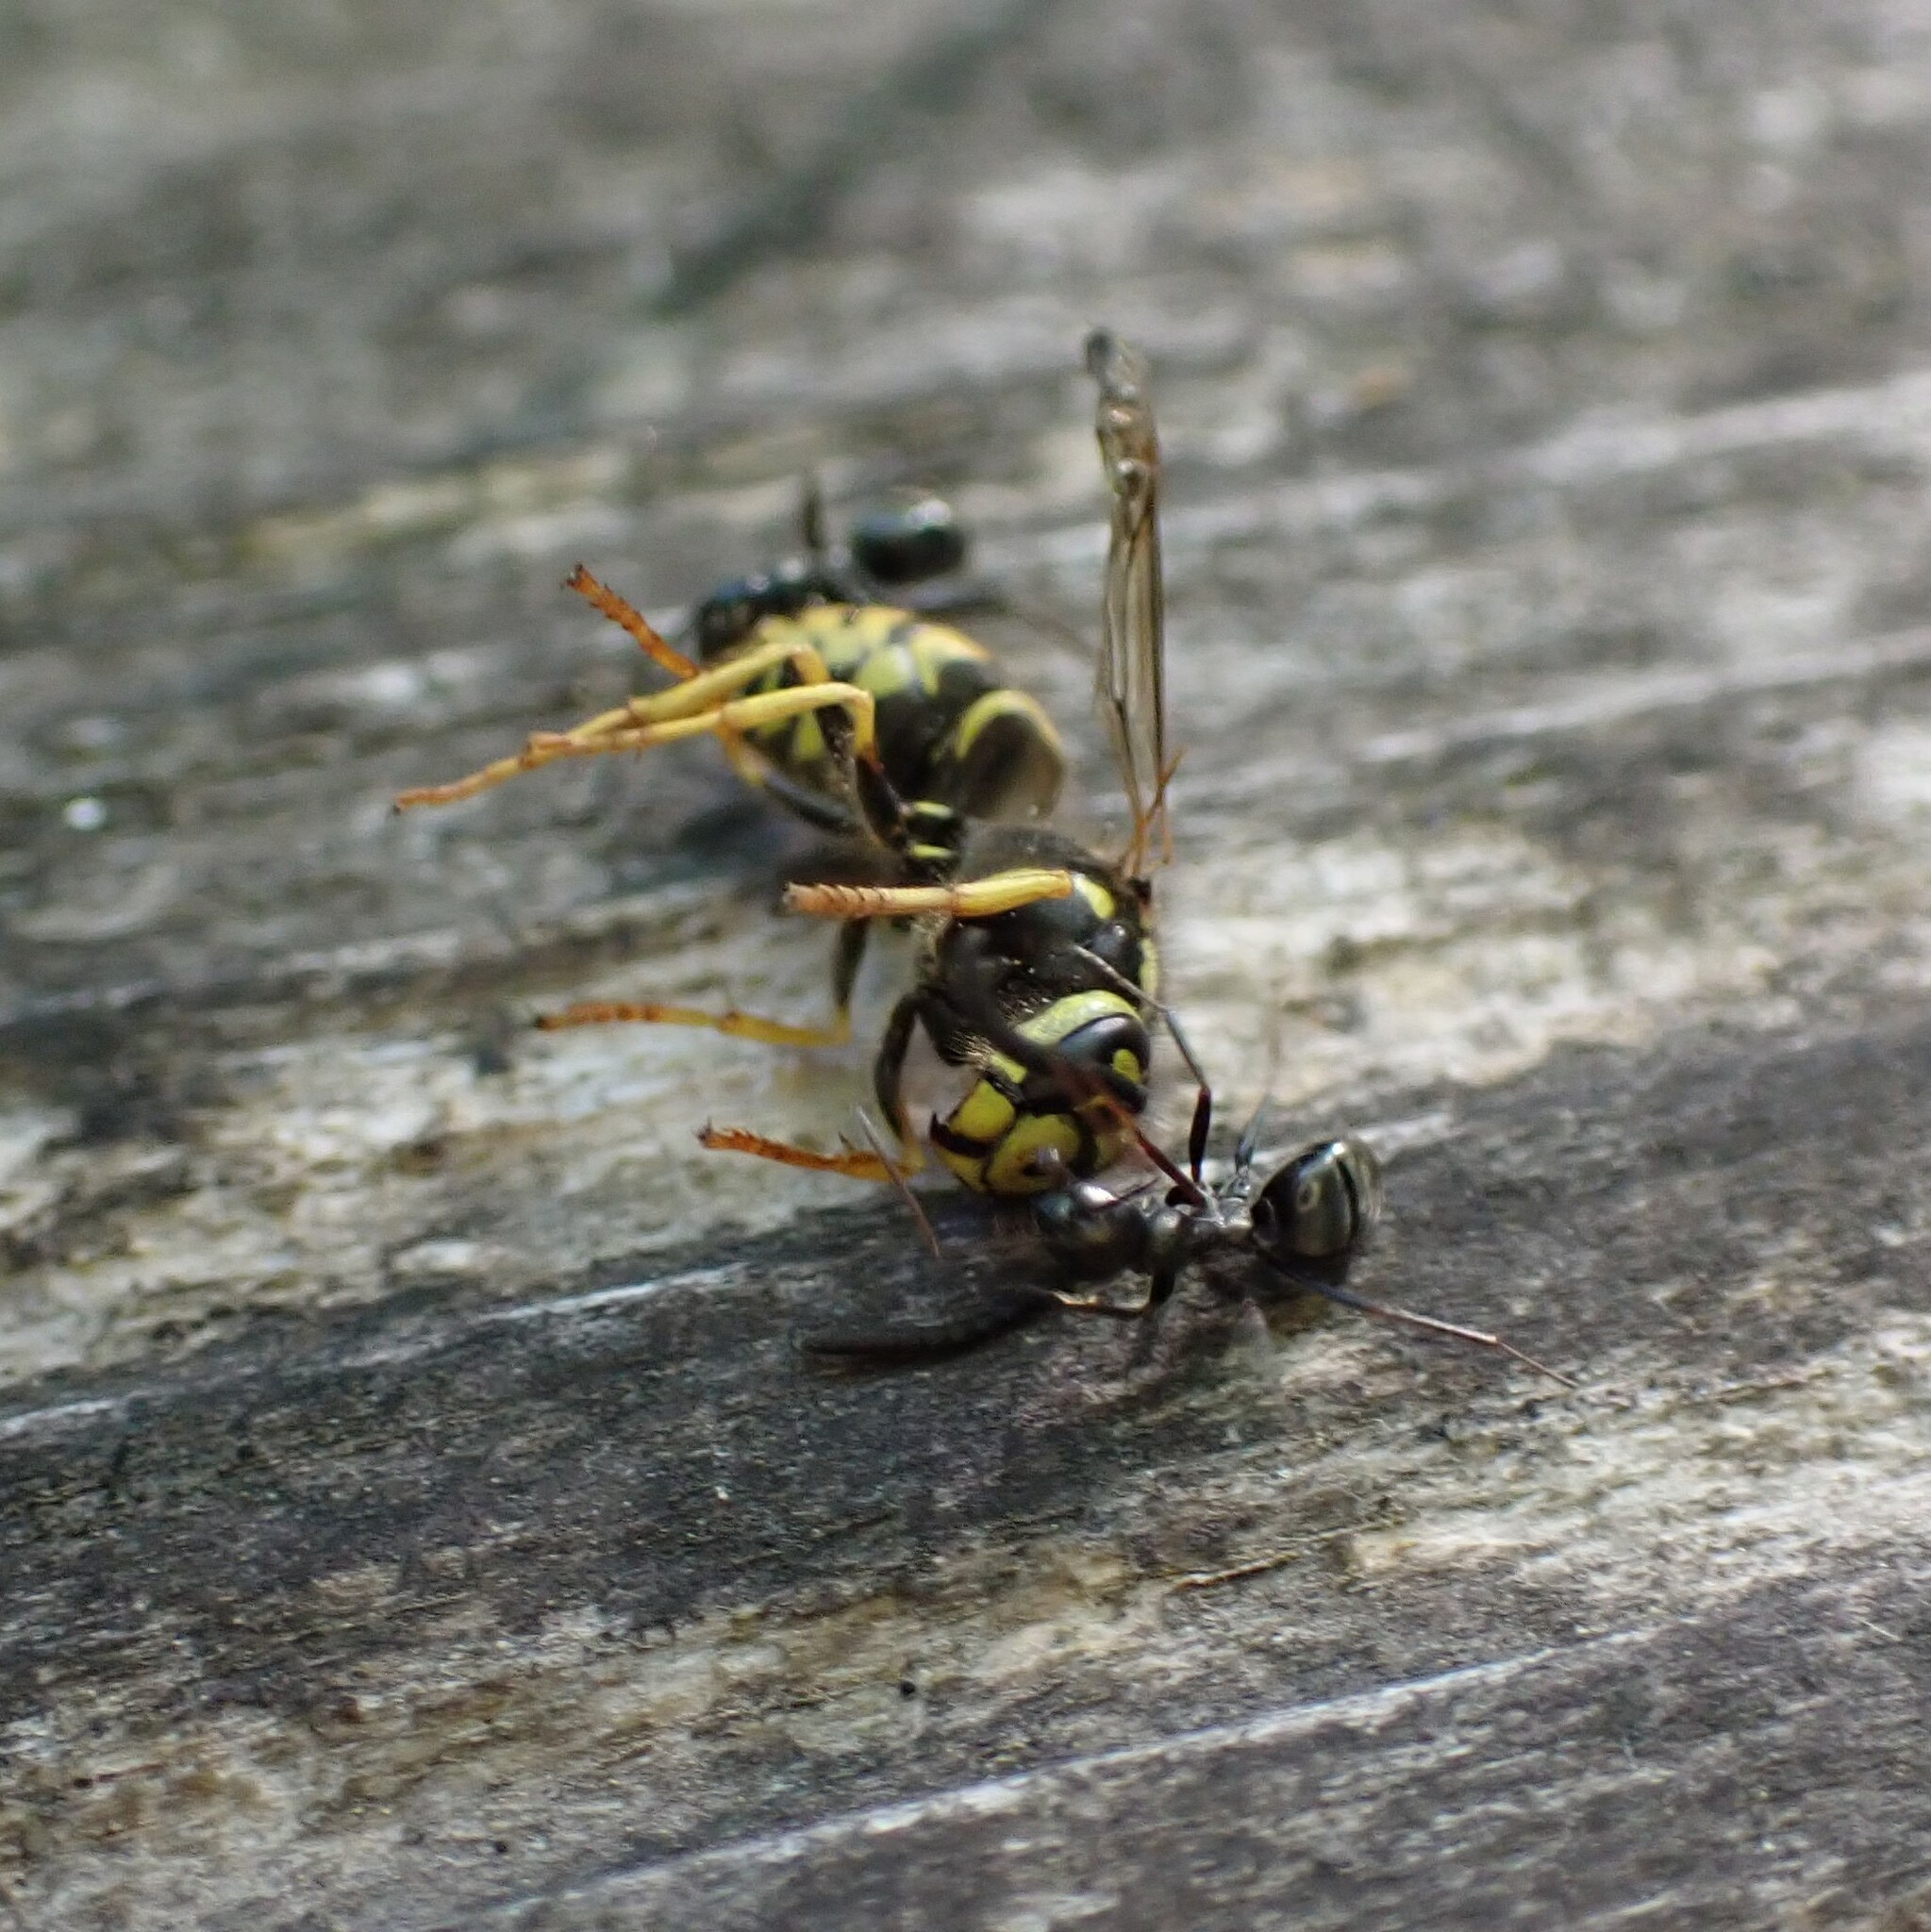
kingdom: Animalia
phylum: Arthropoda
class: Insecta
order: Hymenoptera
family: Vespidae
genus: Vespula
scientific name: Vespula pensylvanica
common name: Western yellowjacket
